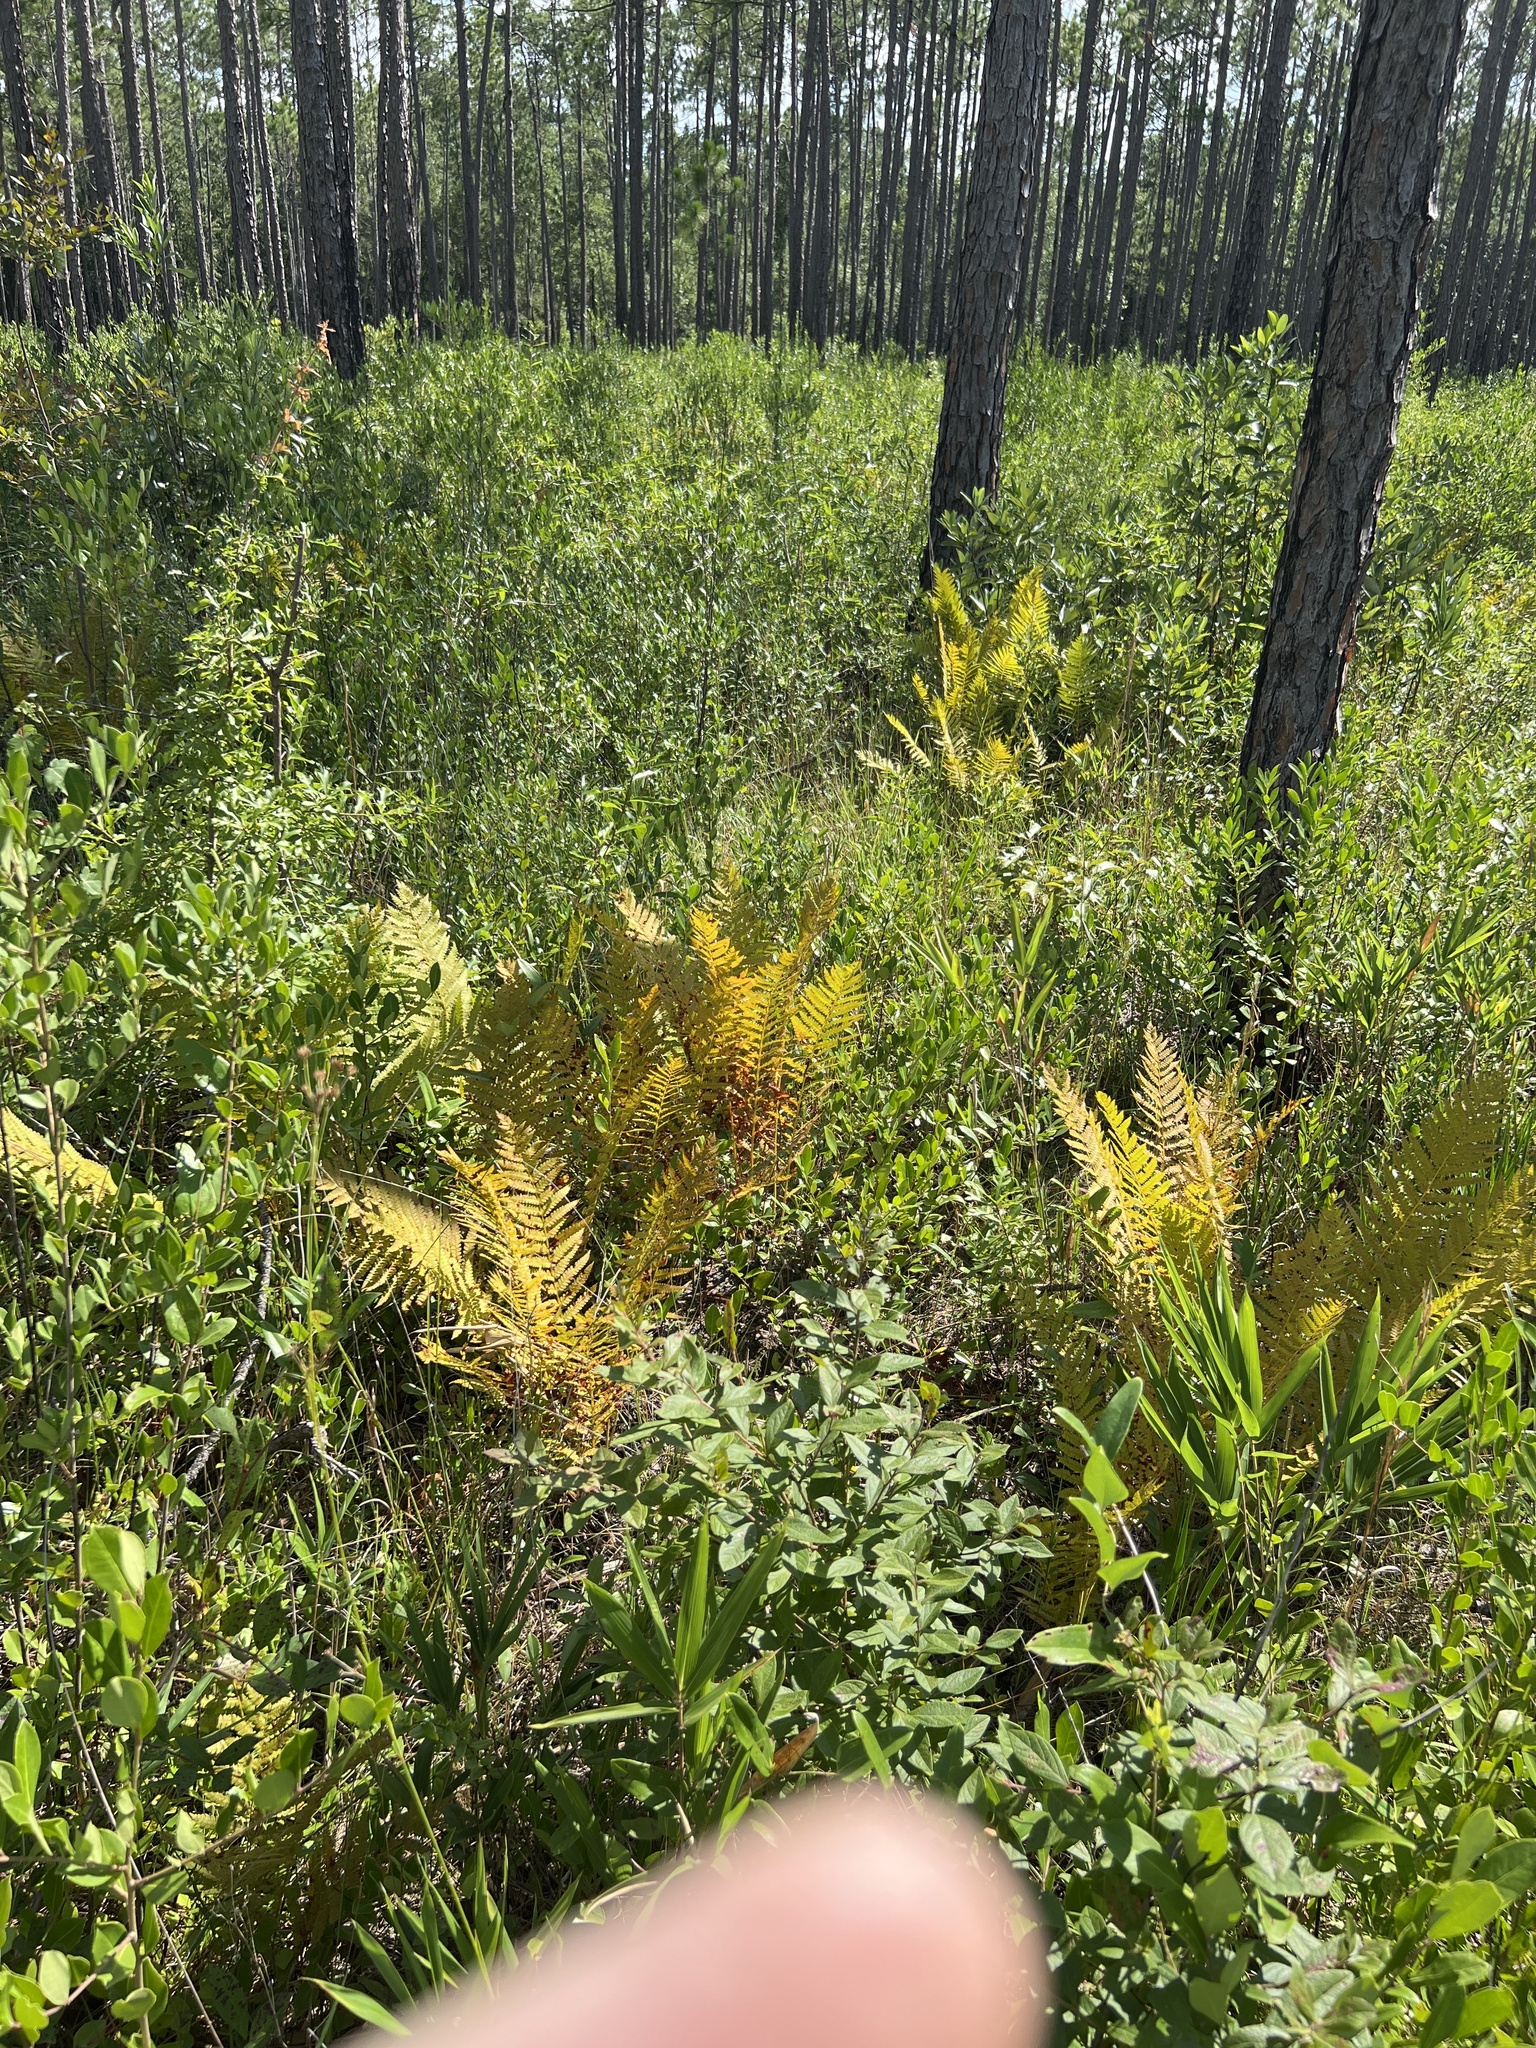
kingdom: Plantae
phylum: Tracheophyta
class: Polypodiopsida
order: Osmundales
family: Osmundaceae
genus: Osmundastrum
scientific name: Osmundastrum cinnamomeum
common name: Cinnamon fern
